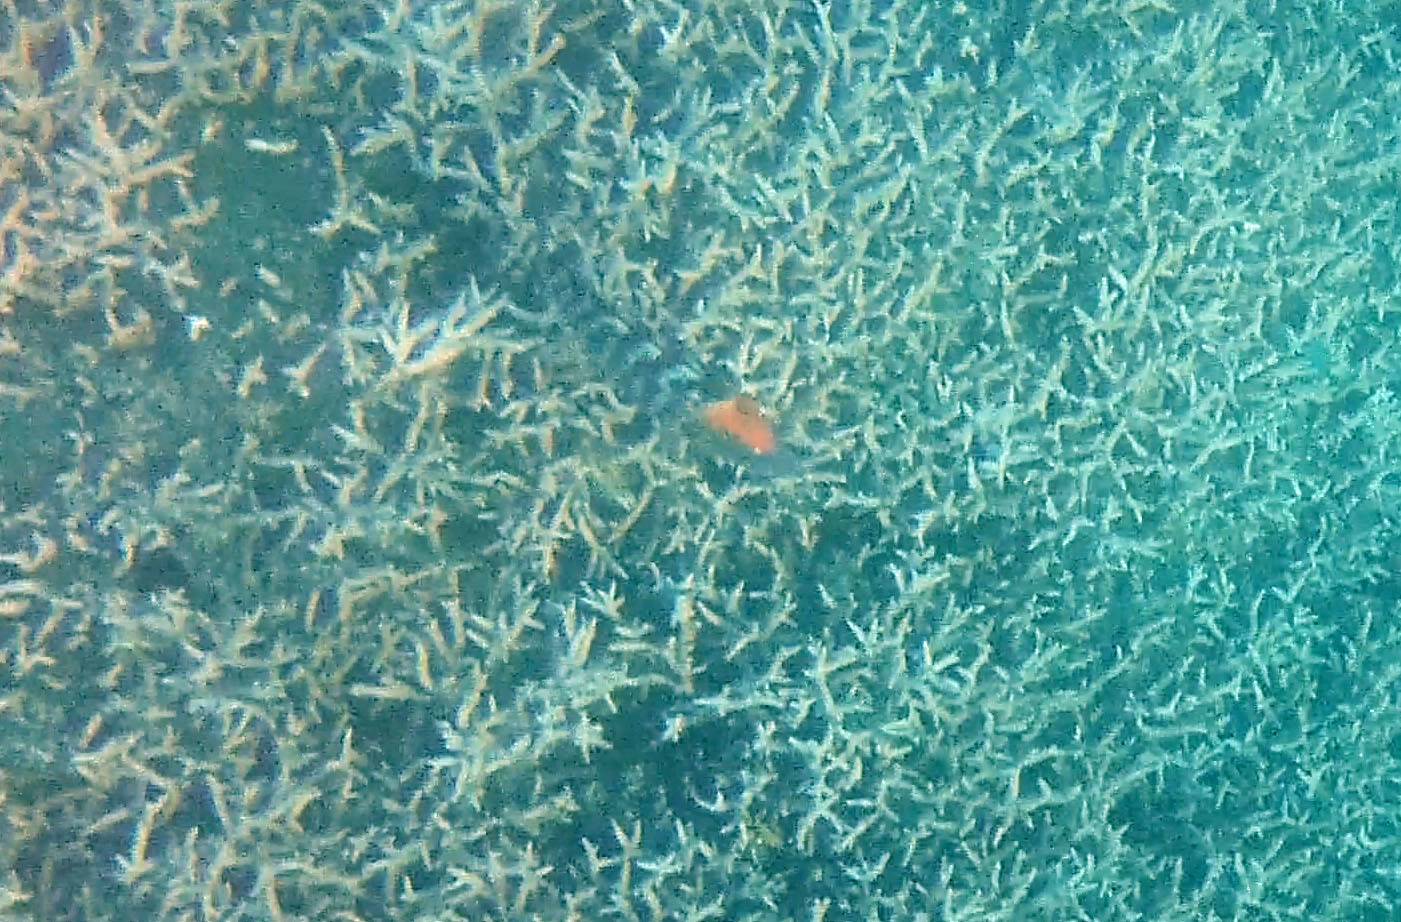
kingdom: Animalia
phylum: Chordata
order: Perciformes
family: Labridae
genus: Cheilinus
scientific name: Cheilinus fasciatus
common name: Red-breasted wrasse
